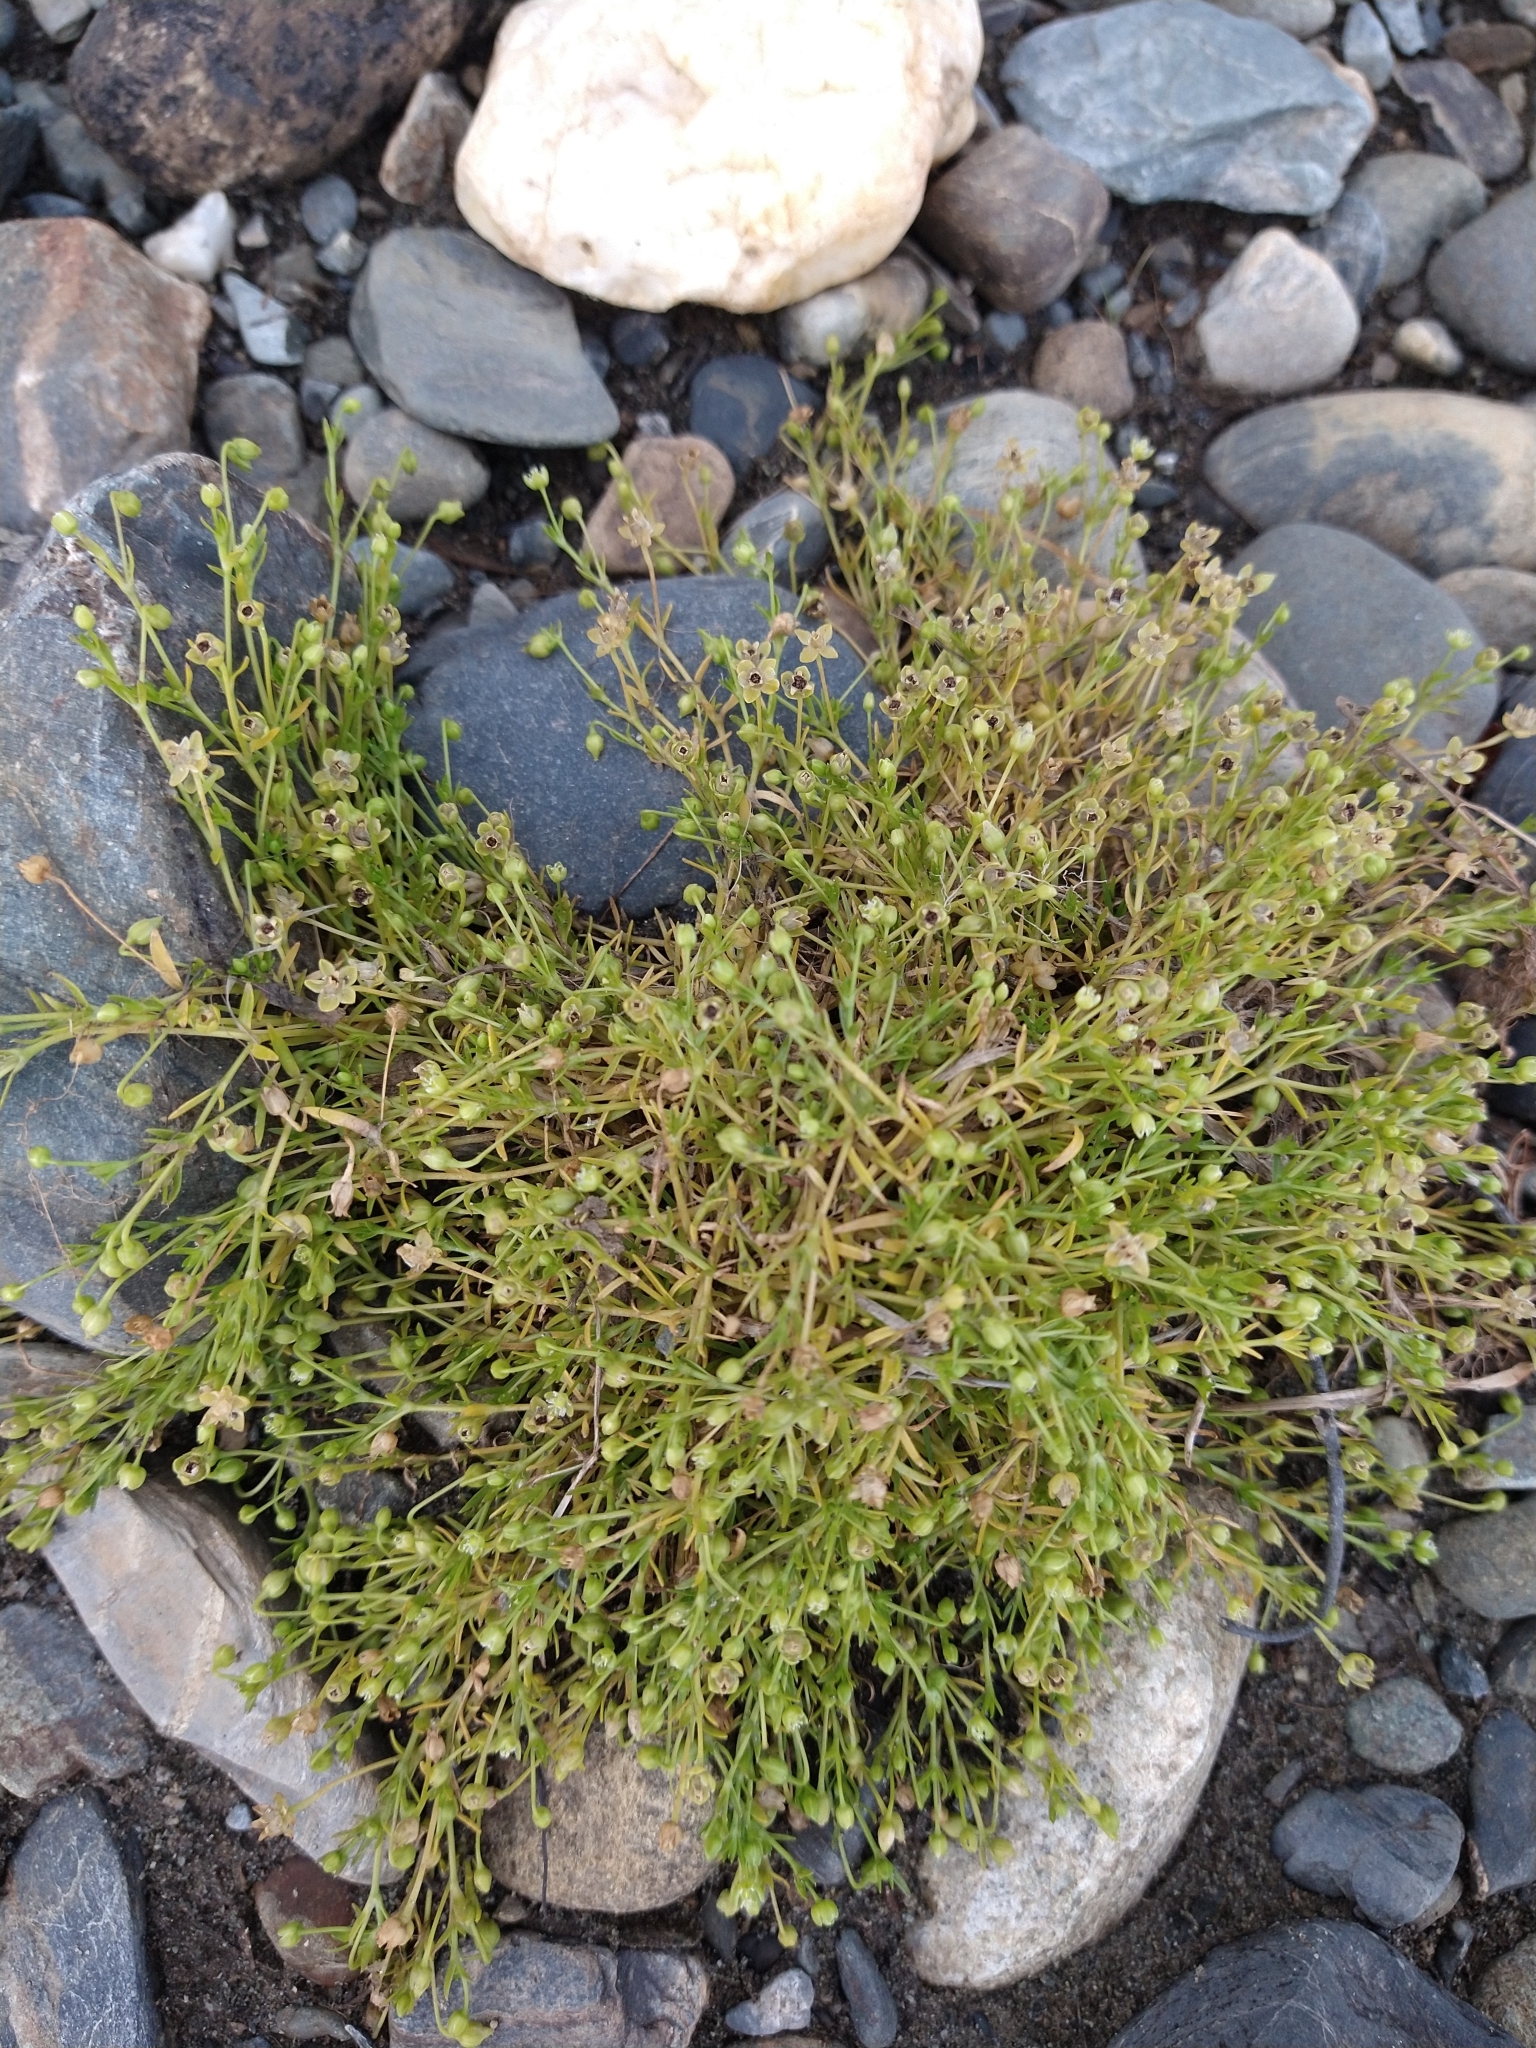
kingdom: Plantae
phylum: Tracheophyta
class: Magnoliopsida
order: Caryophyllales
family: Caryophyllaceae
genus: Sagina
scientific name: Sagina procumbens
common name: Procumbent pearlwort
